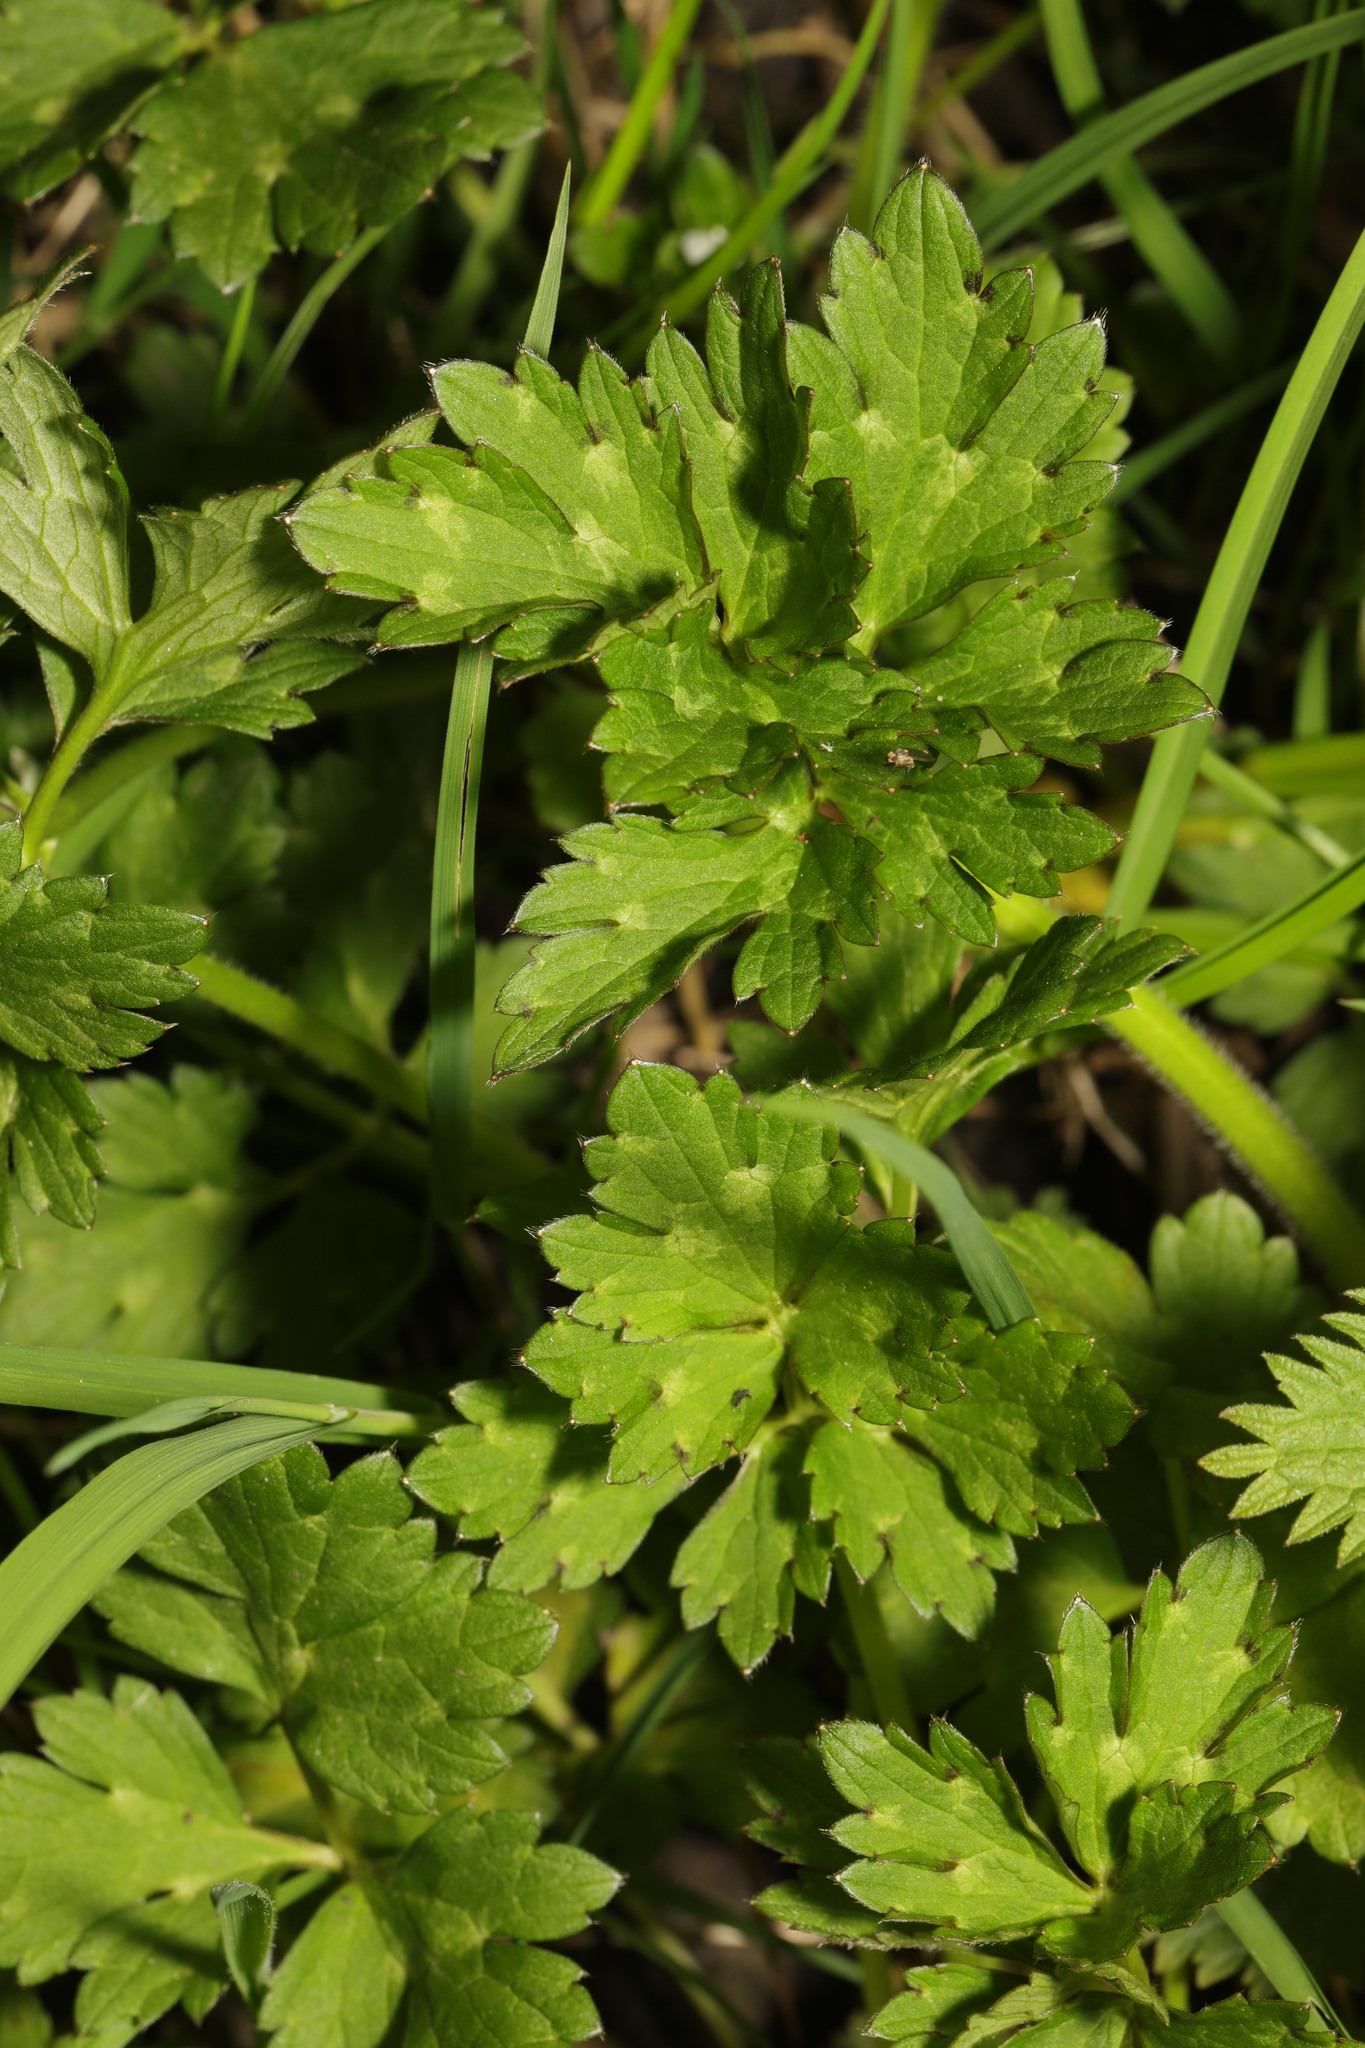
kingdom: Plantae
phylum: Tracheophyta
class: Magnoliopsida
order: Ranunculales
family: Ranunculaceae
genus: Ranunculus
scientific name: Ranunculus repens
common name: Creeping buttercup
